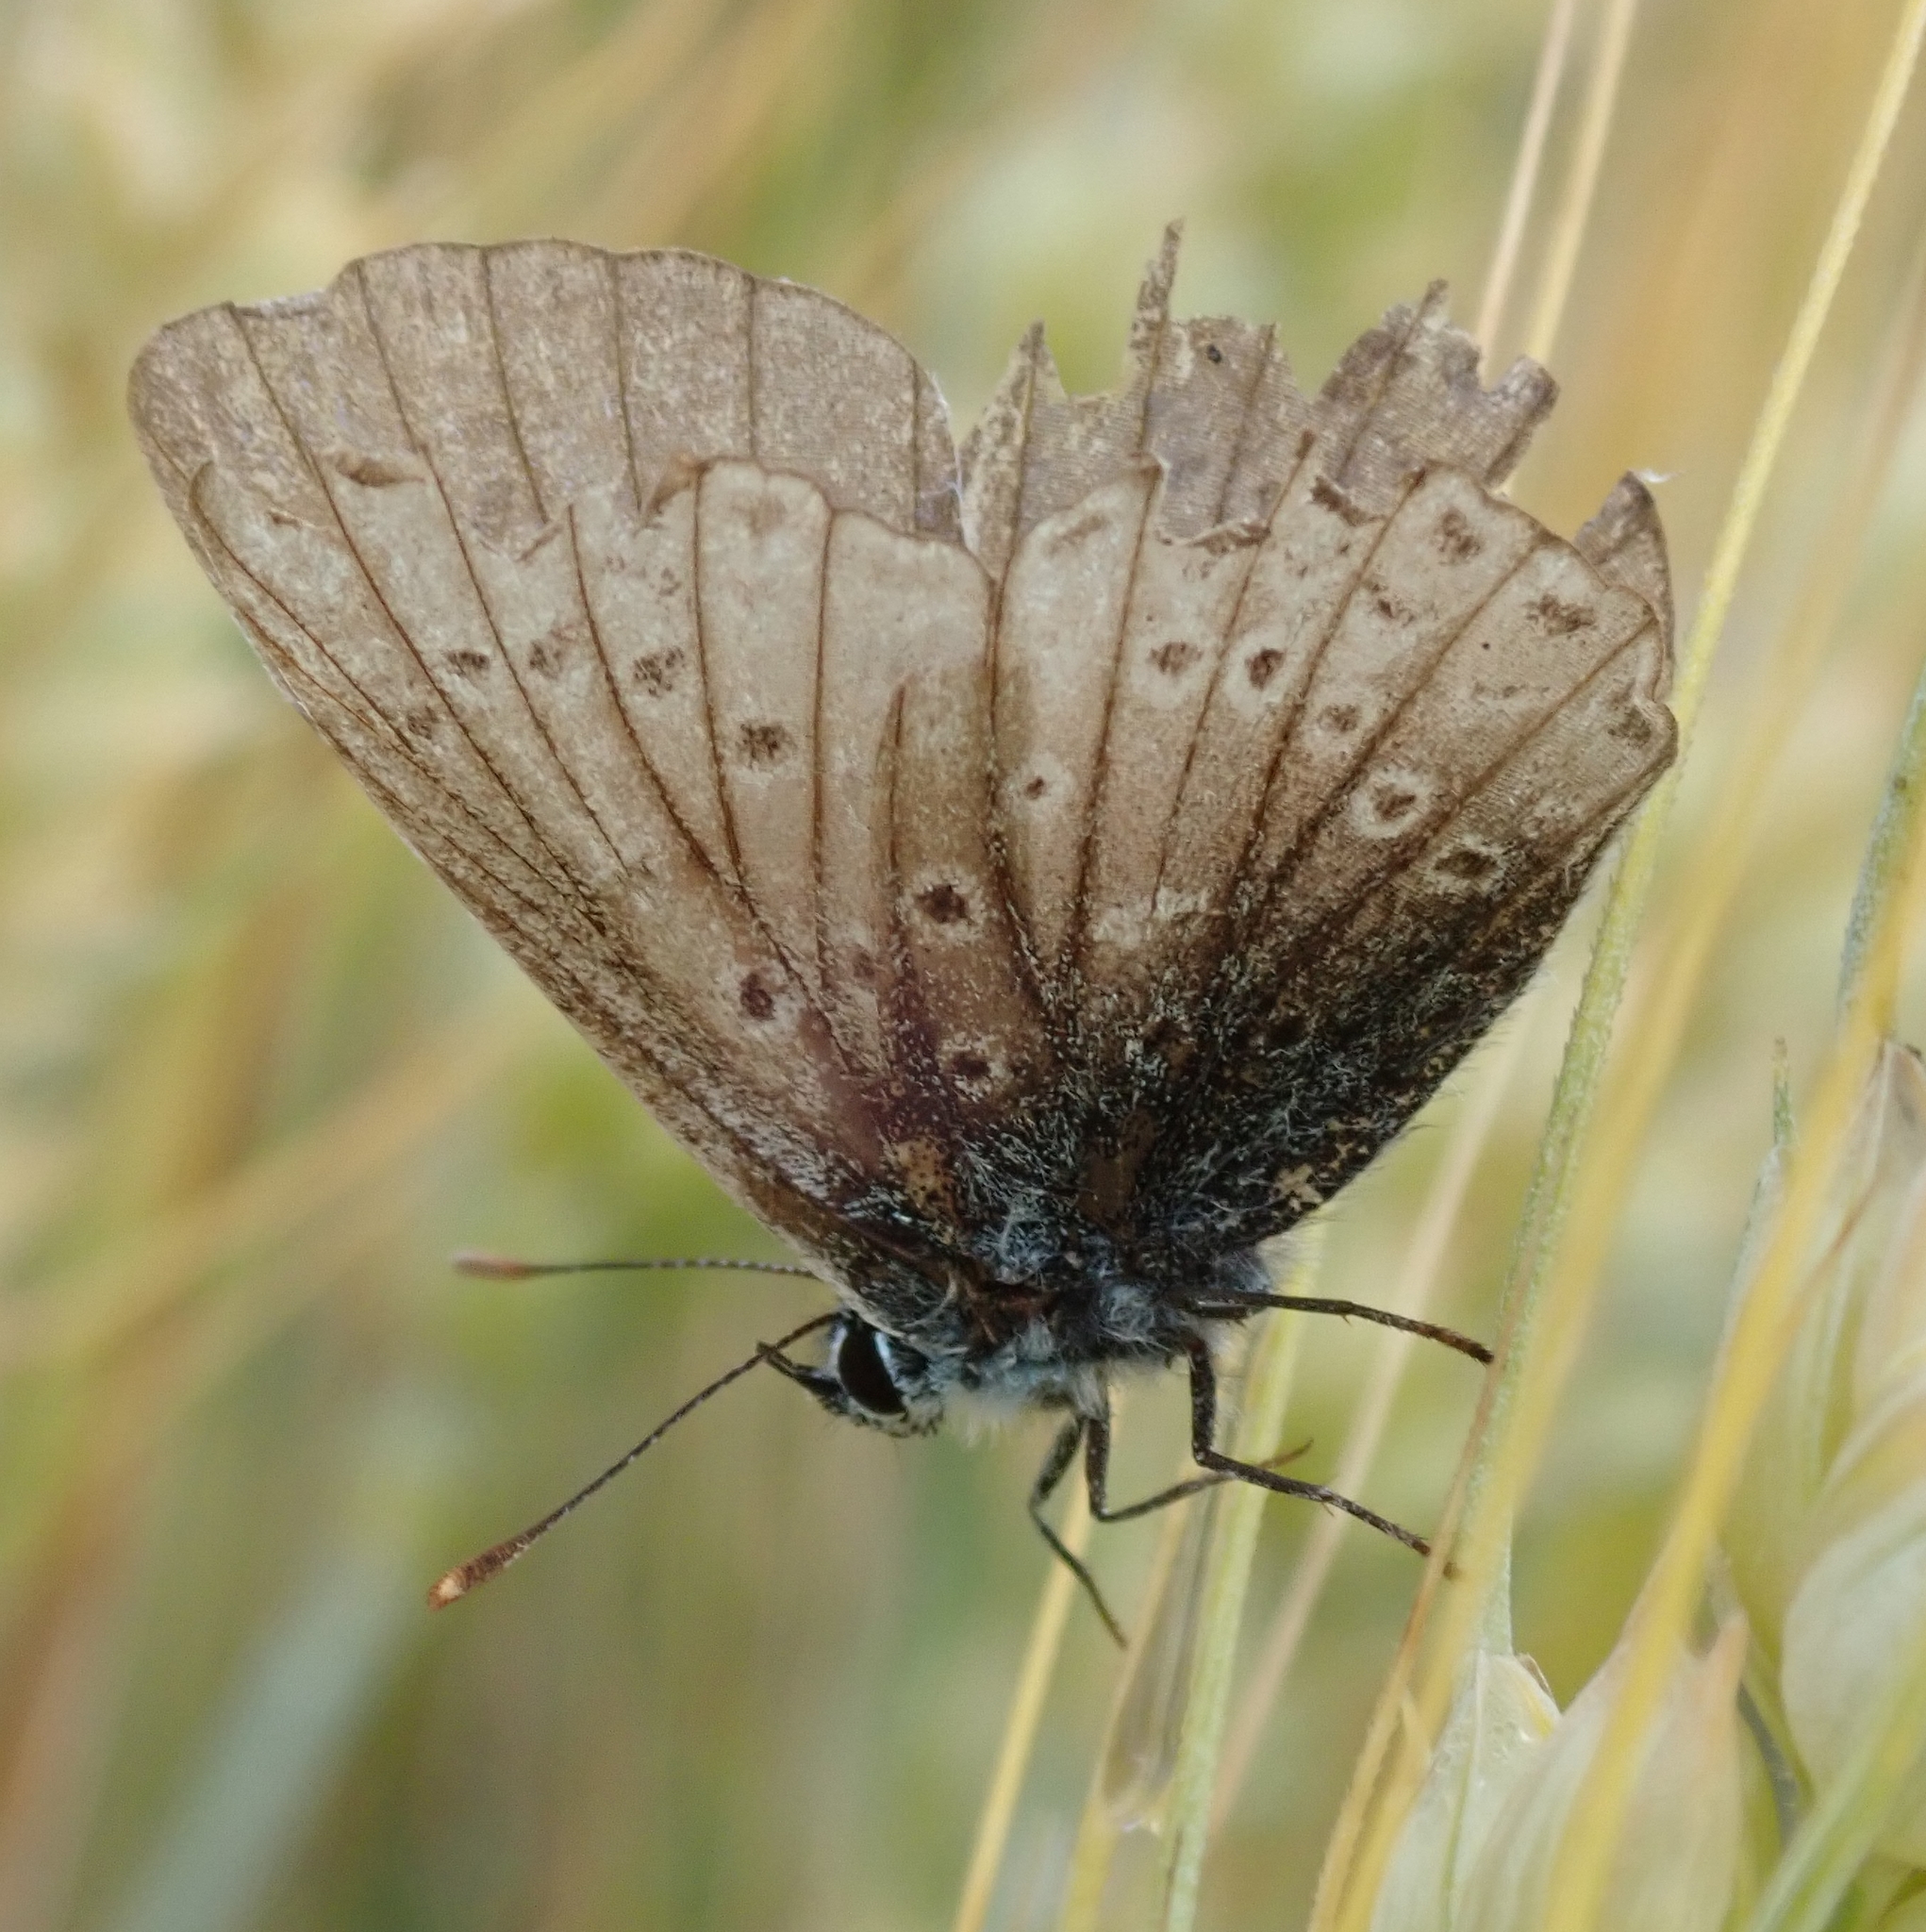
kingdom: Animalia
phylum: Arthropoda
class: Insecta
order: Lepidoptera
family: Lycaenidae
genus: Polyommatus
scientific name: Polyommatus icarus
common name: Common blue
